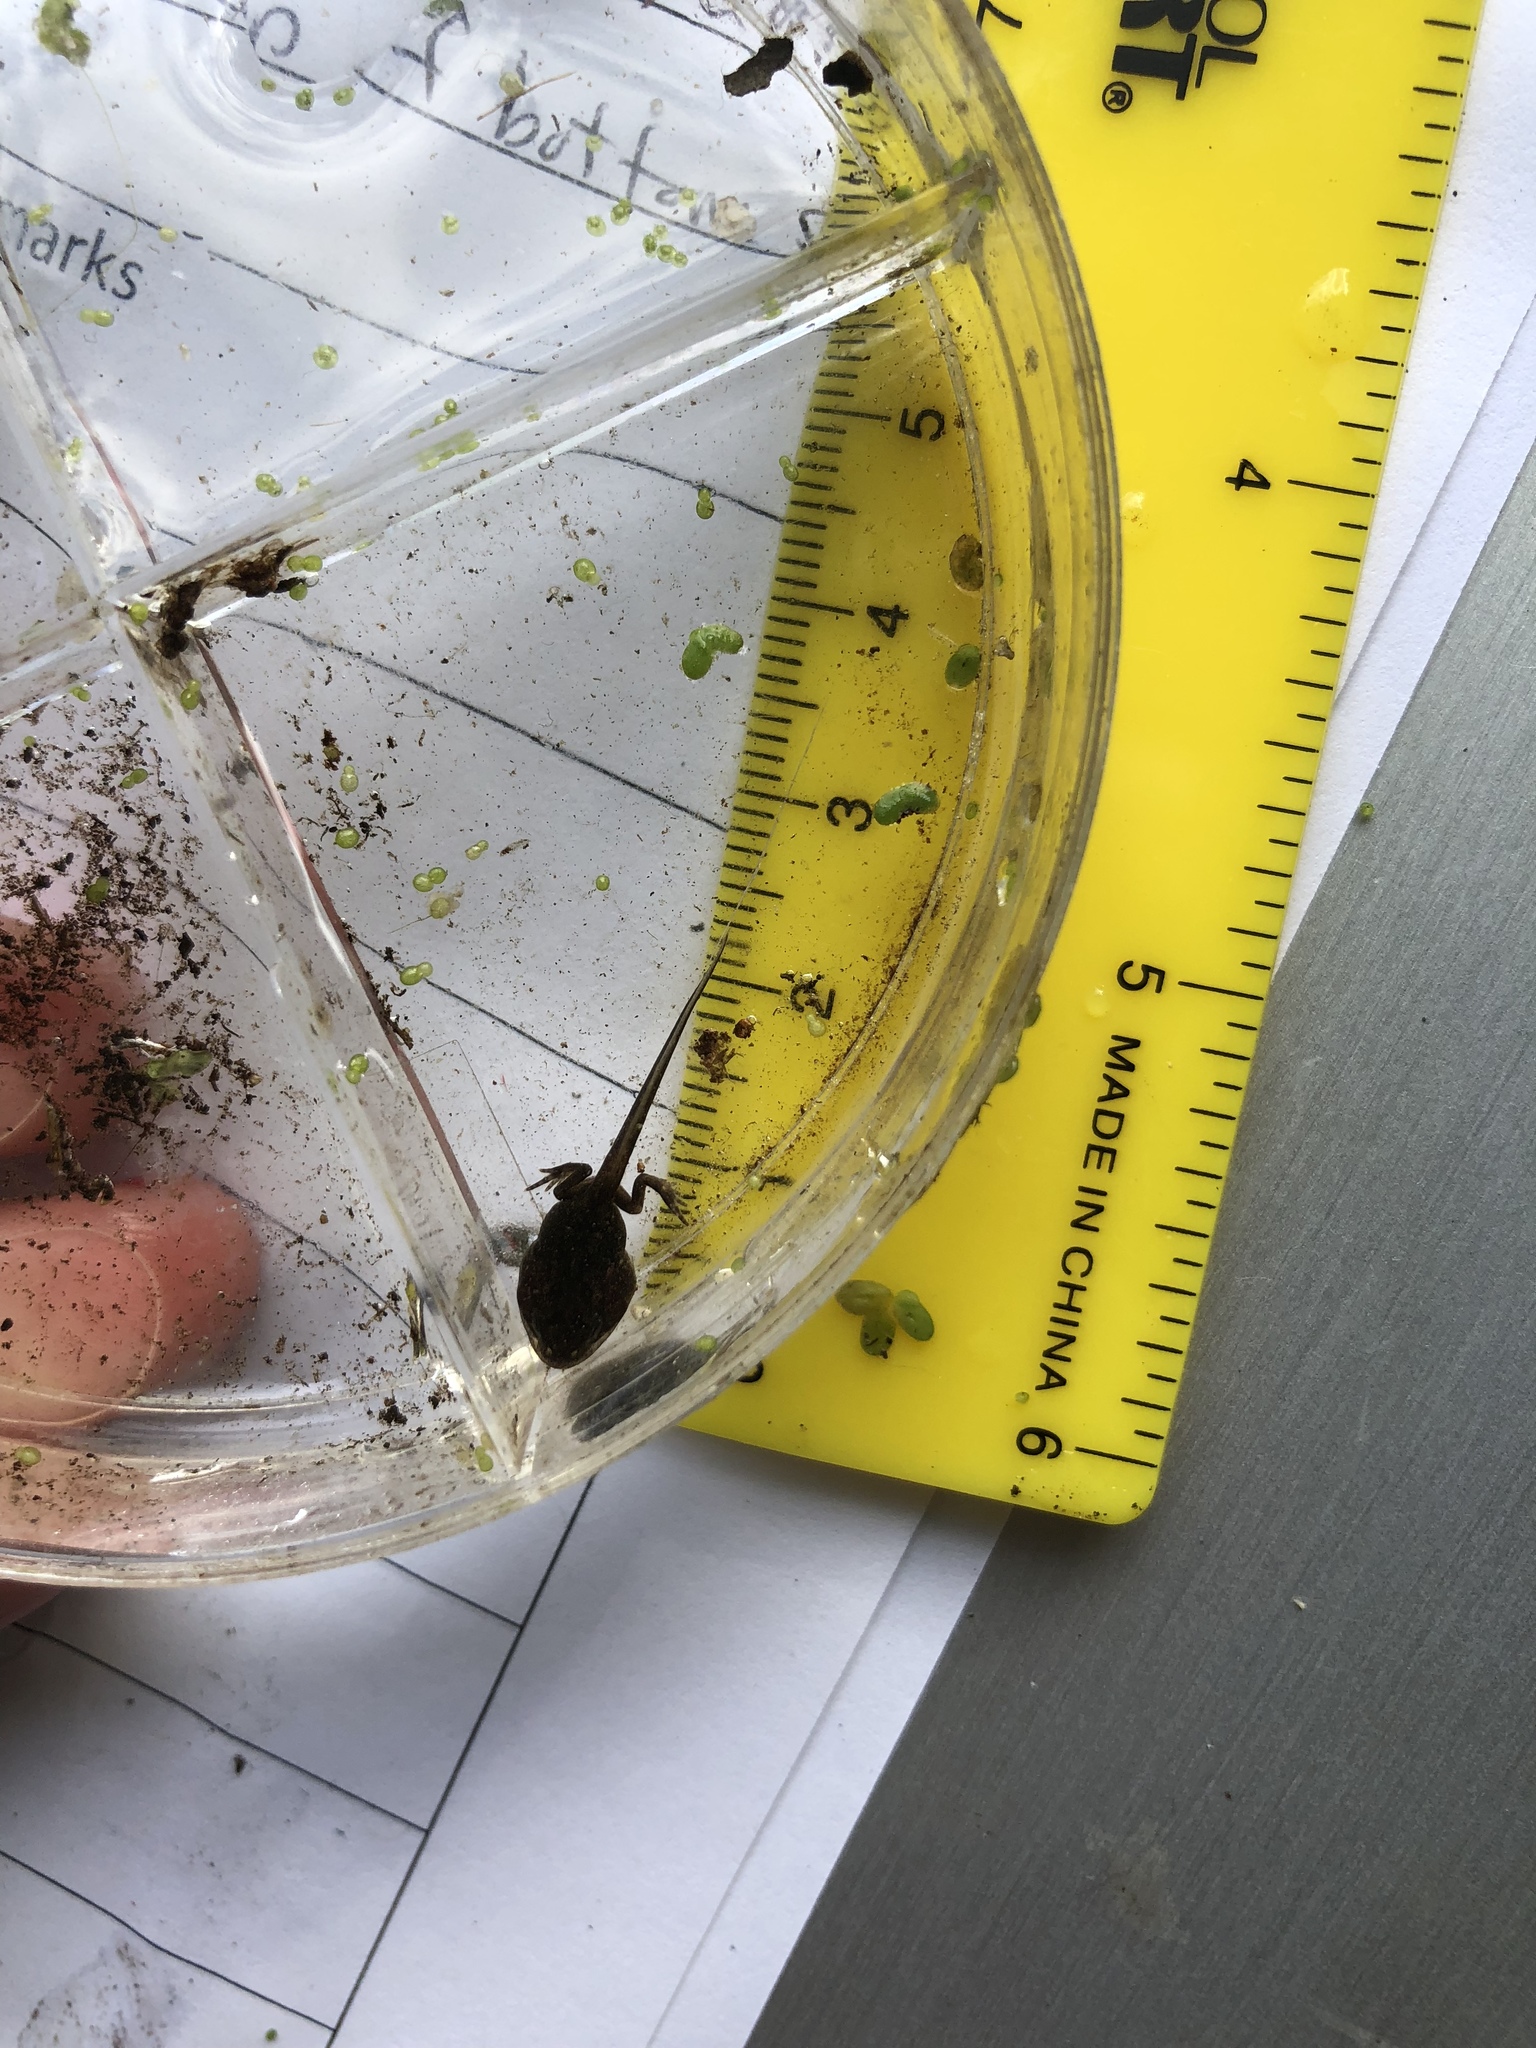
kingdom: Animalia
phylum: Chordata
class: Amphibia
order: Anura
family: Hylidae
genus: Pseudacris
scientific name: Pseudacris crucifer
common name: Spring peeper
